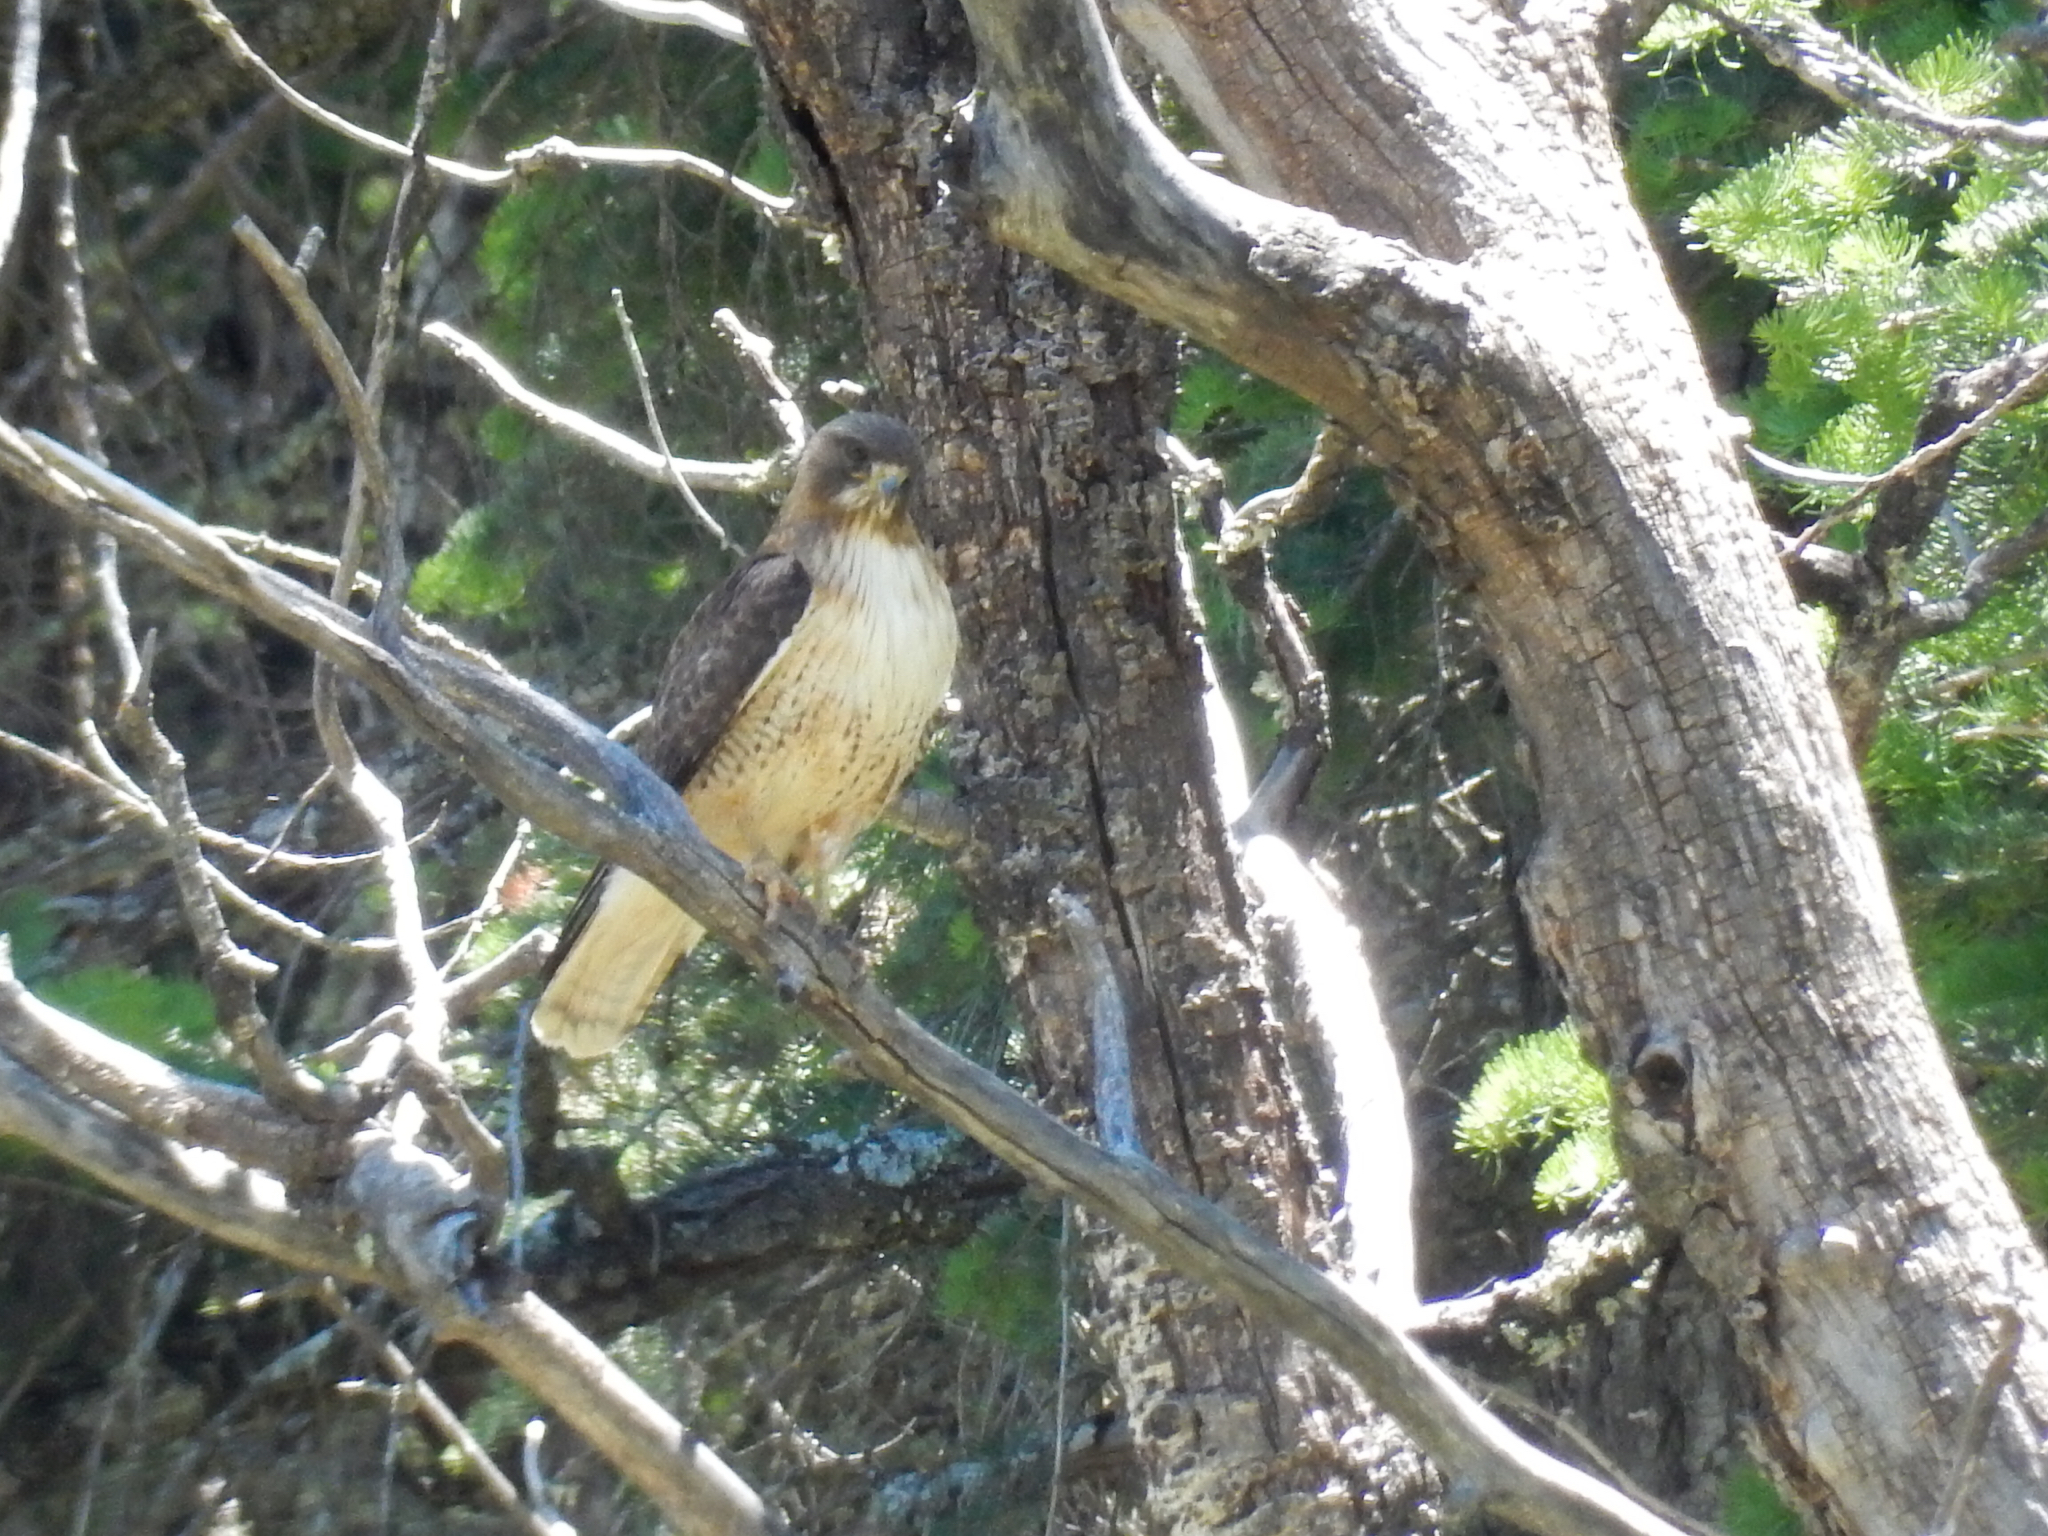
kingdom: Animalia
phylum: Chordata
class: Aves
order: Accipitriformes
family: Accipitridae
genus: Buteo
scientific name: Buteo jamaicensis
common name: Red-tailed hawk
